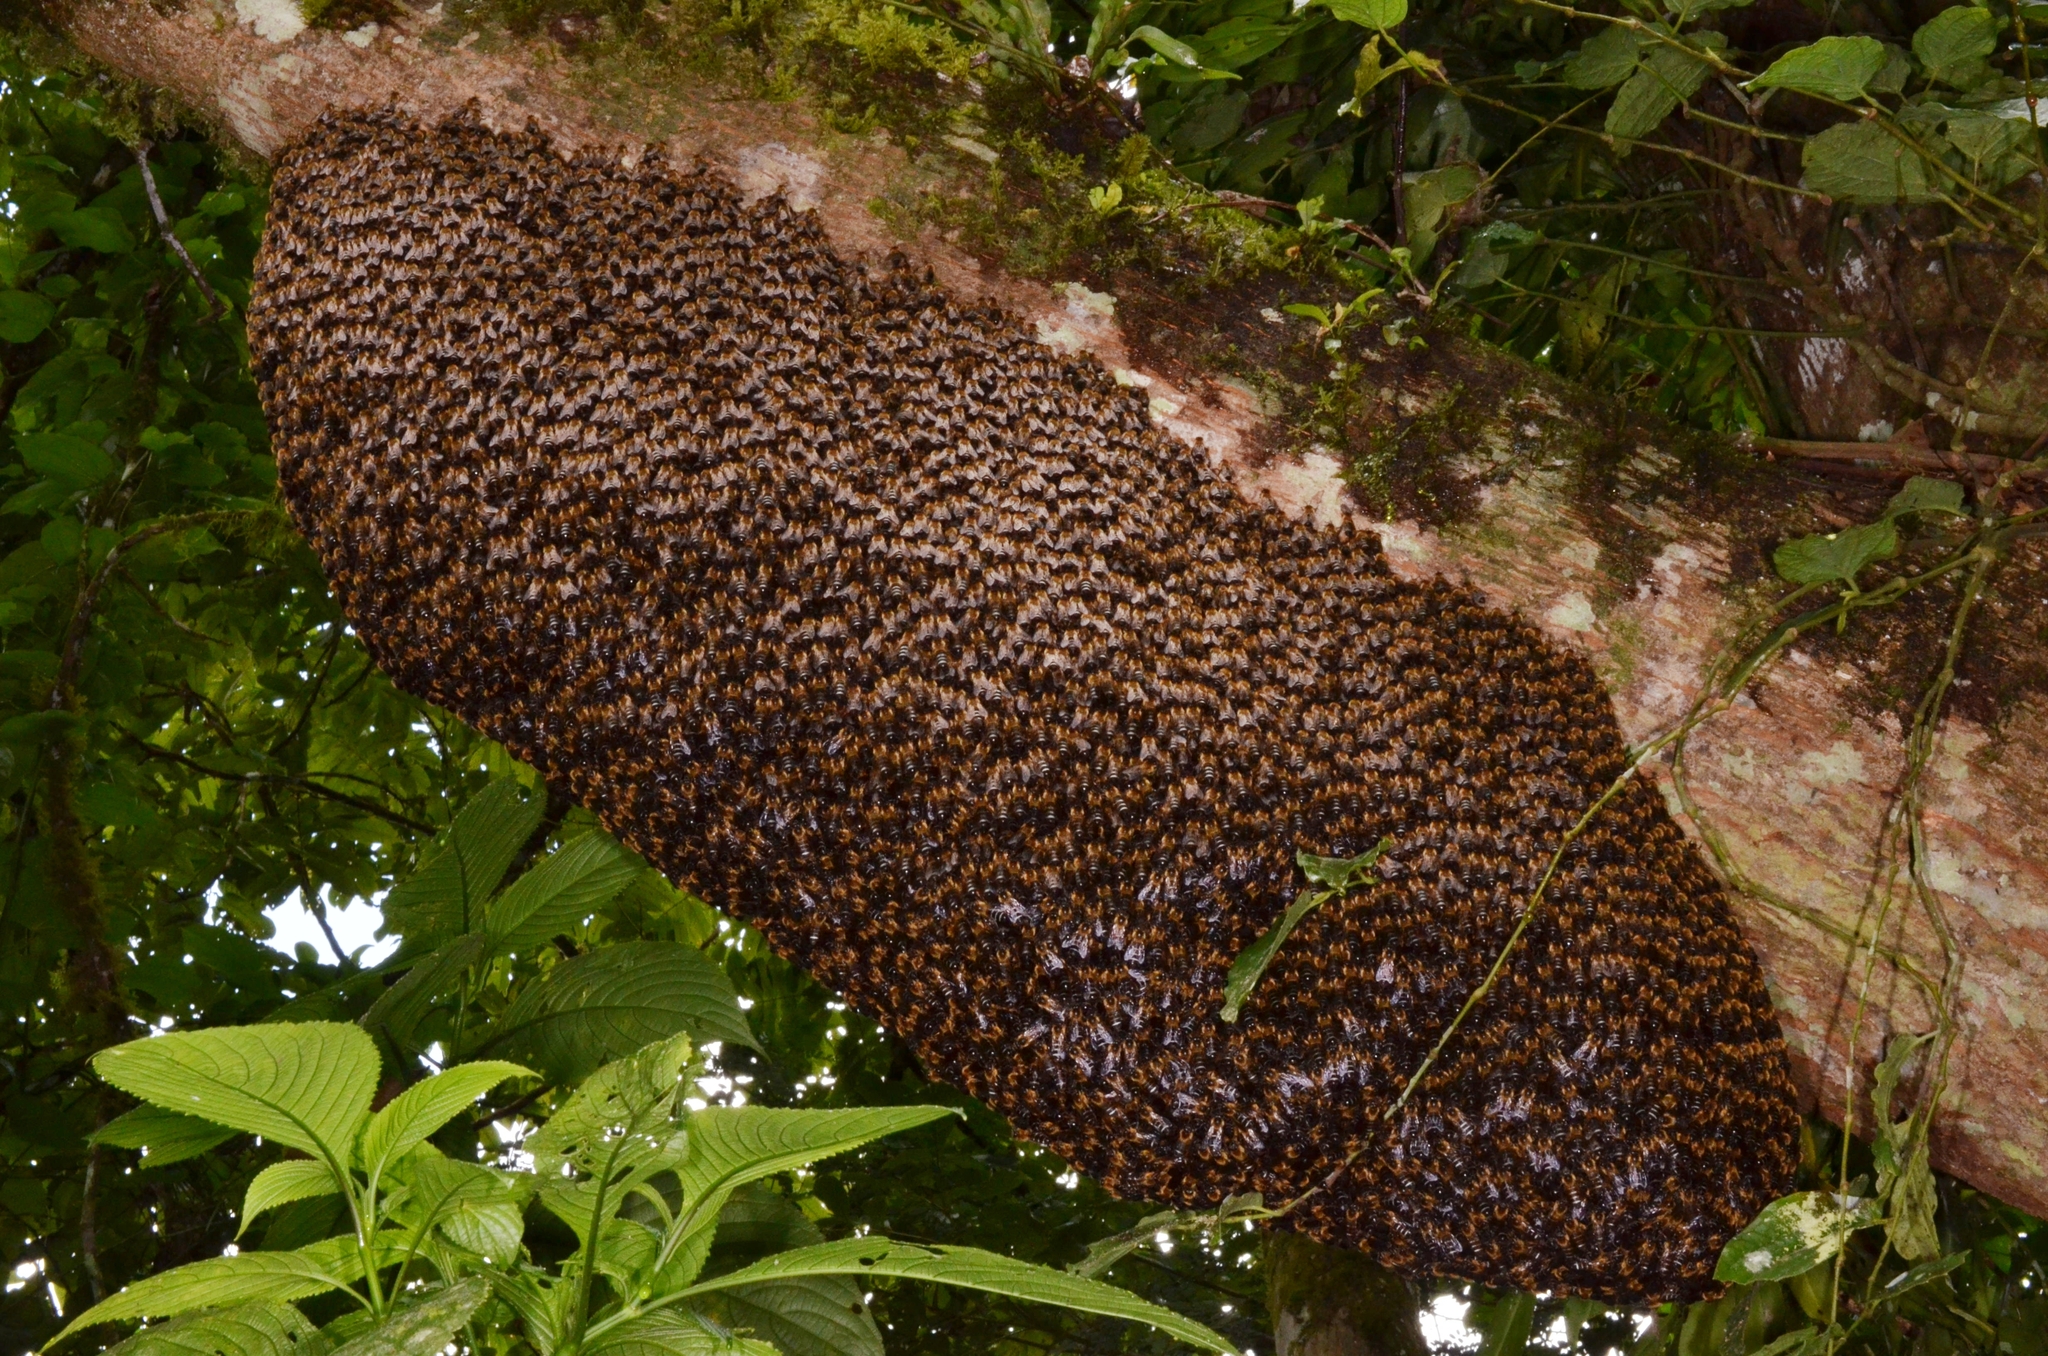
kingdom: Animalia
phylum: Arthropoda
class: Insecta
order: Hymenoptera
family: Apidae
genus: Apis
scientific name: Apis laboriosa
